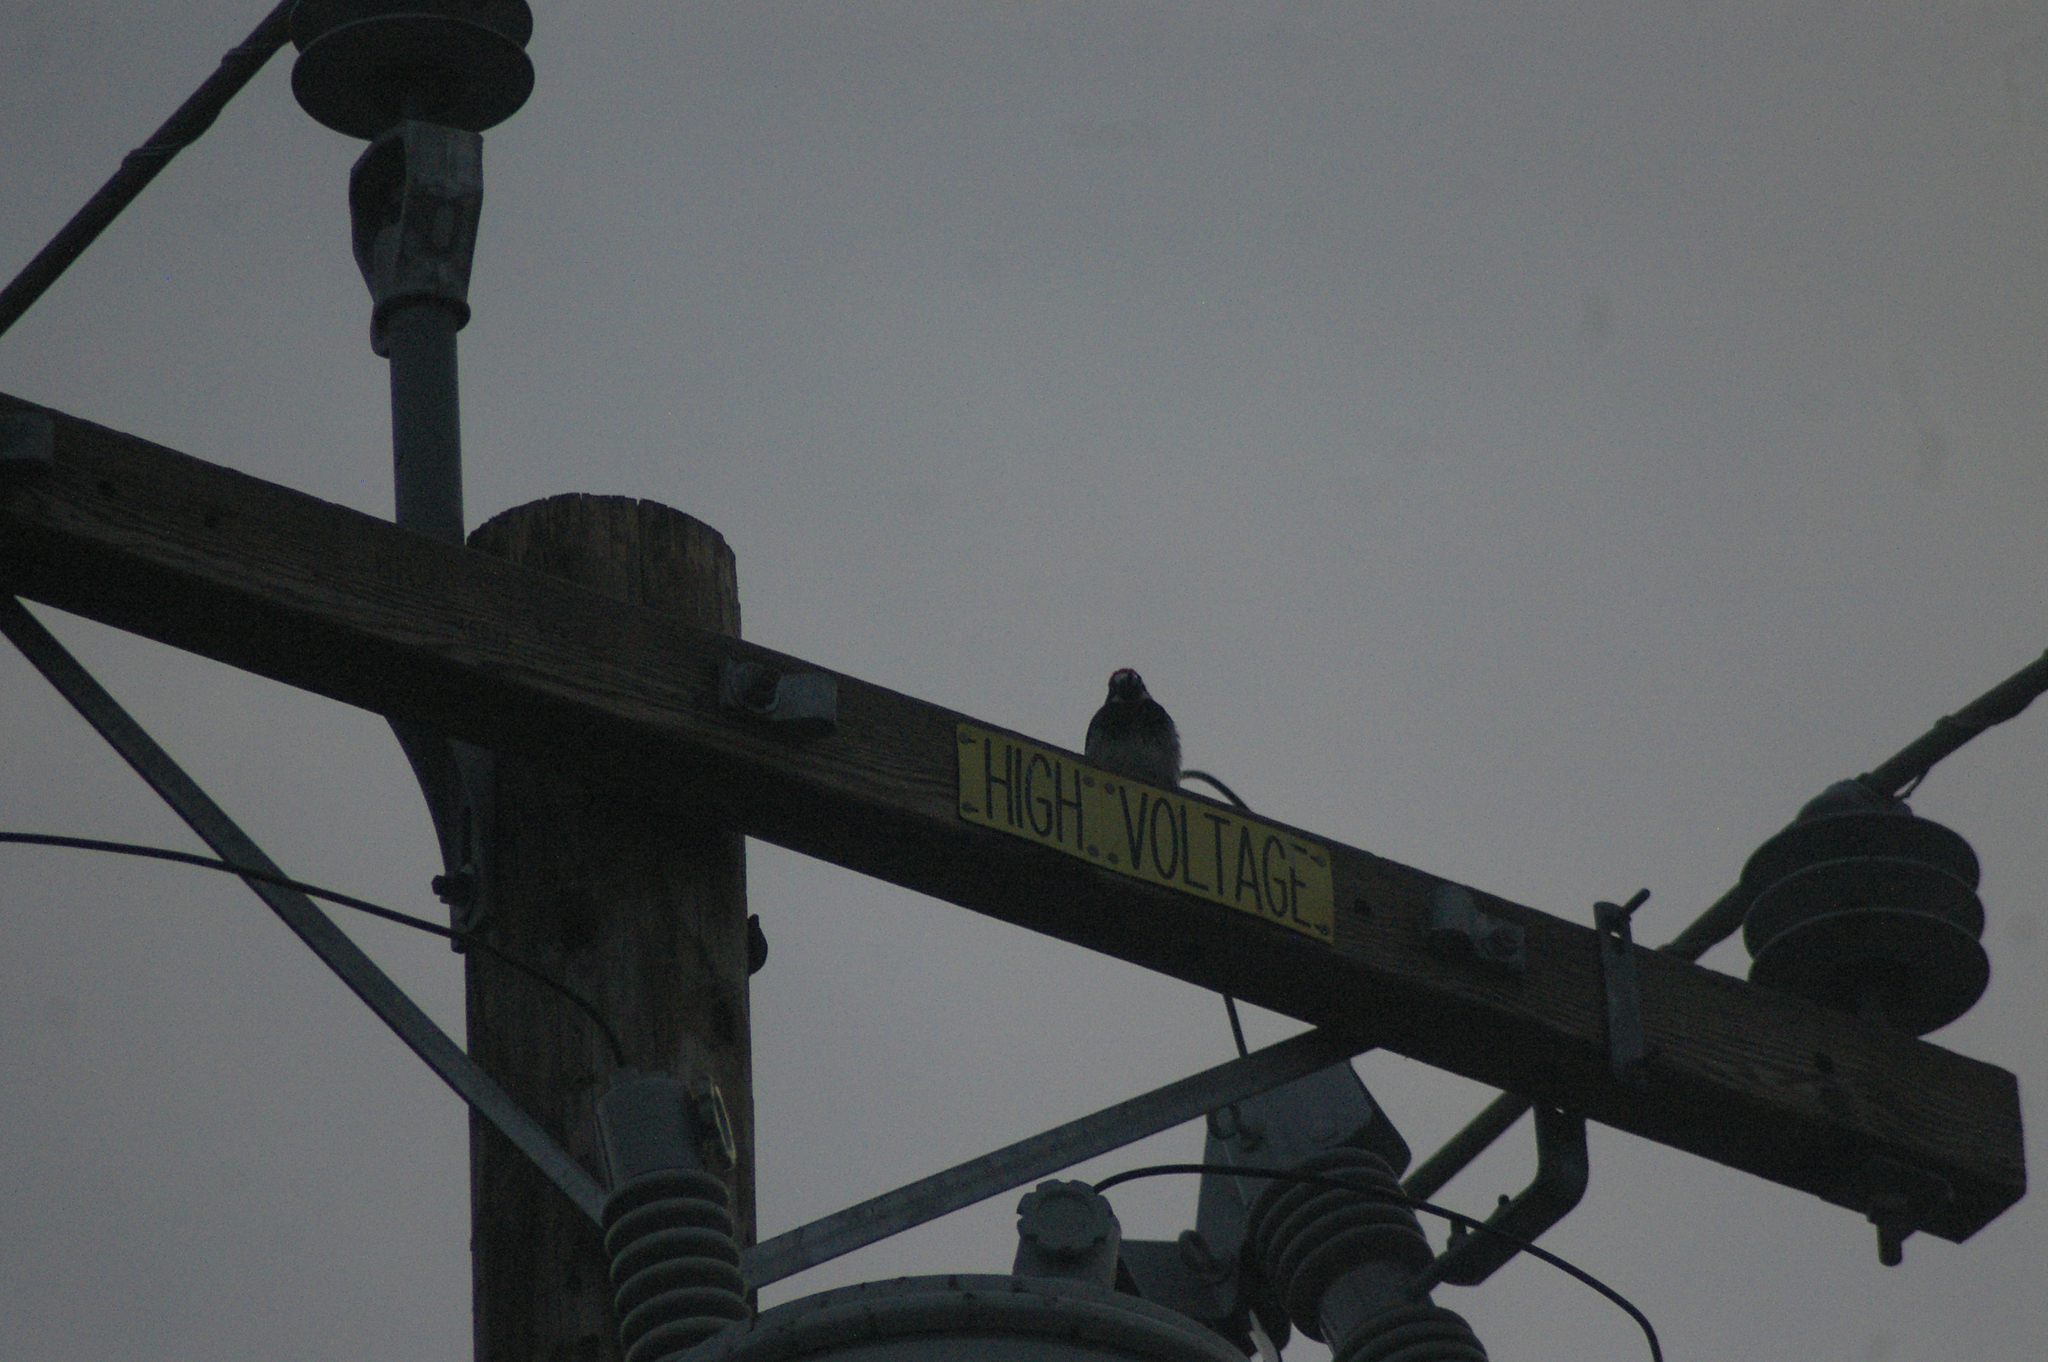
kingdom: Animalia
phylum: Chordata
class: Aves
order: Piciformes
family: Picidae
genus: Melanerpes
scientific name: Melanerpes formicivorus
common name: Acorn woodpecker
